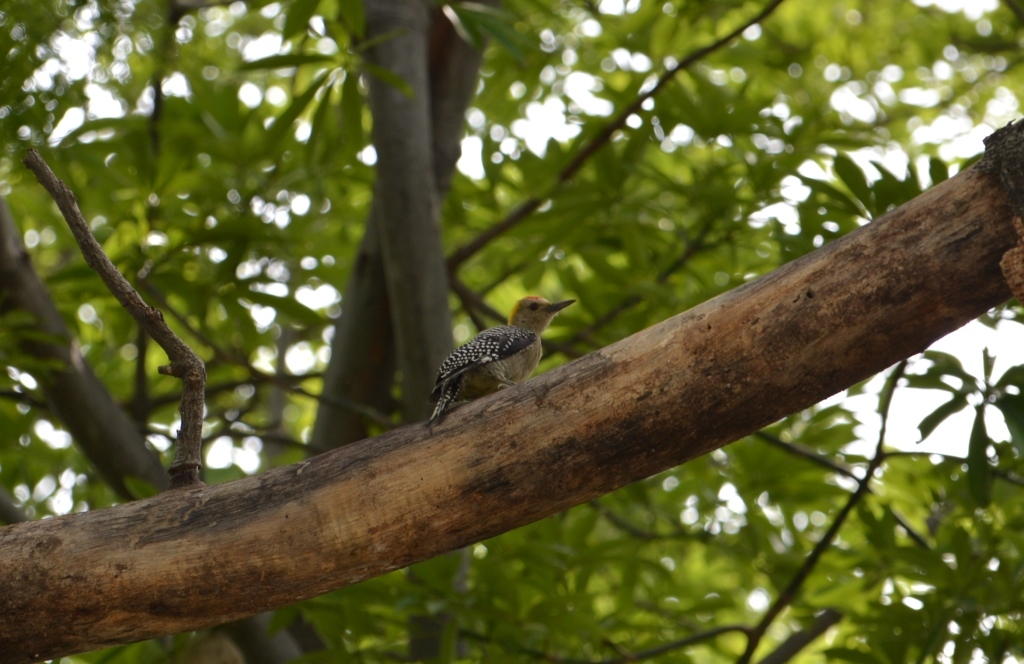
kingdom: Animalia
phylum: Chordata
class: Aves
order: Piciformes
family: Picidae
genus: Melanerpes
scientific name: Melanerpes aurifrons
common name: Golden-fronted woodpecker
